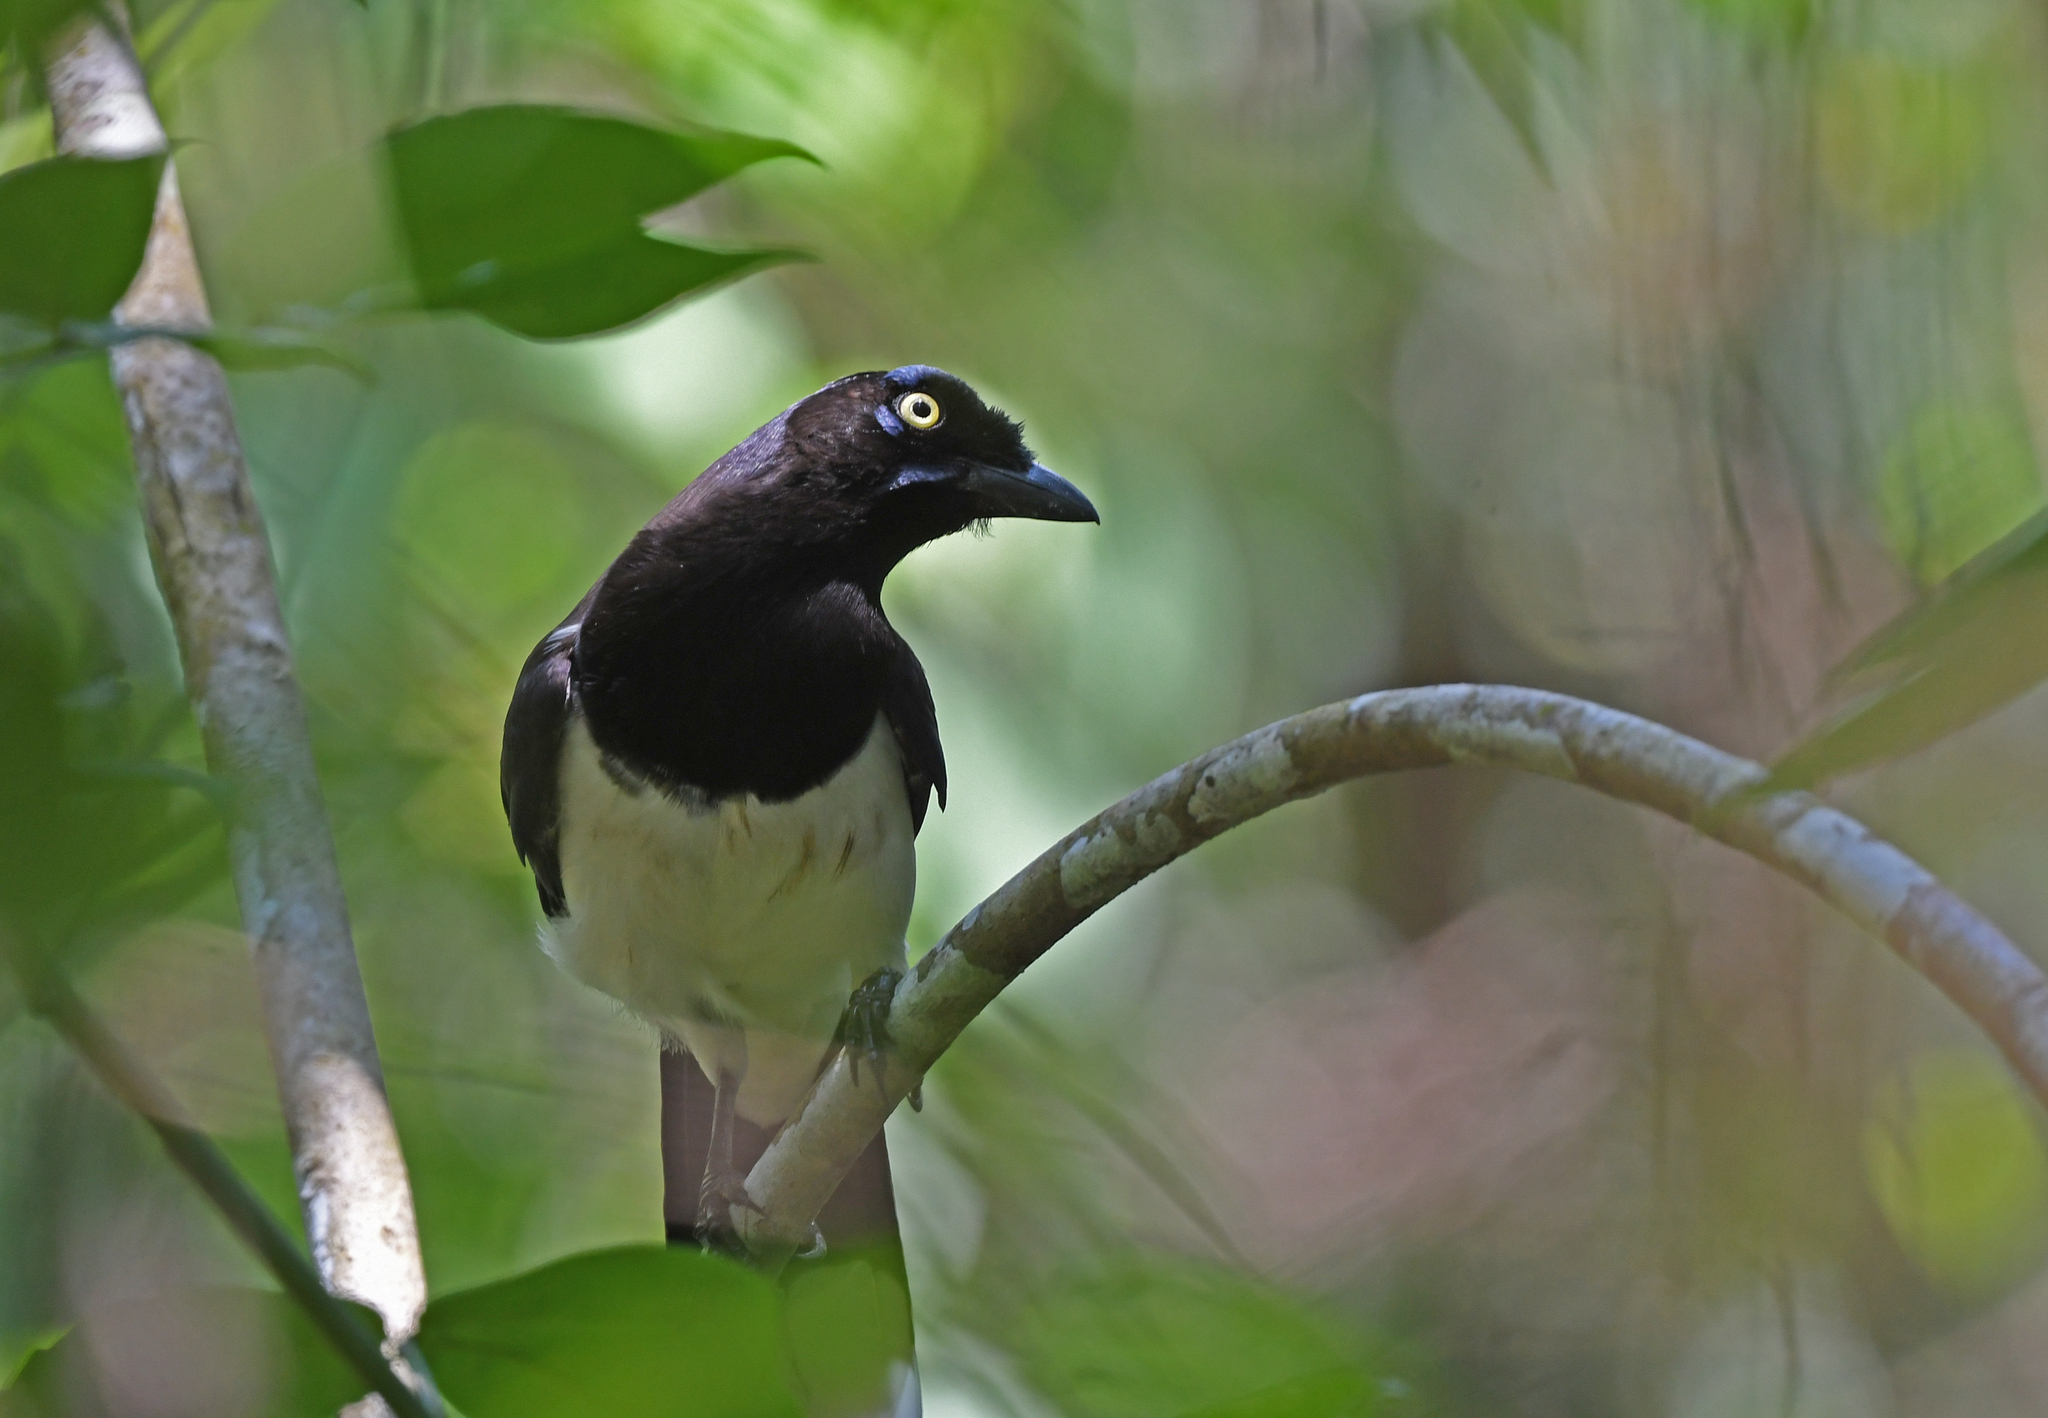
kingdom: Animalia
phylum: Chordata
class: Aves
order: Passeriformes
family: Corvidae
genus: Cyanocorax
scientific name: Cyanocorax affinis
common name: Black-chested jay
